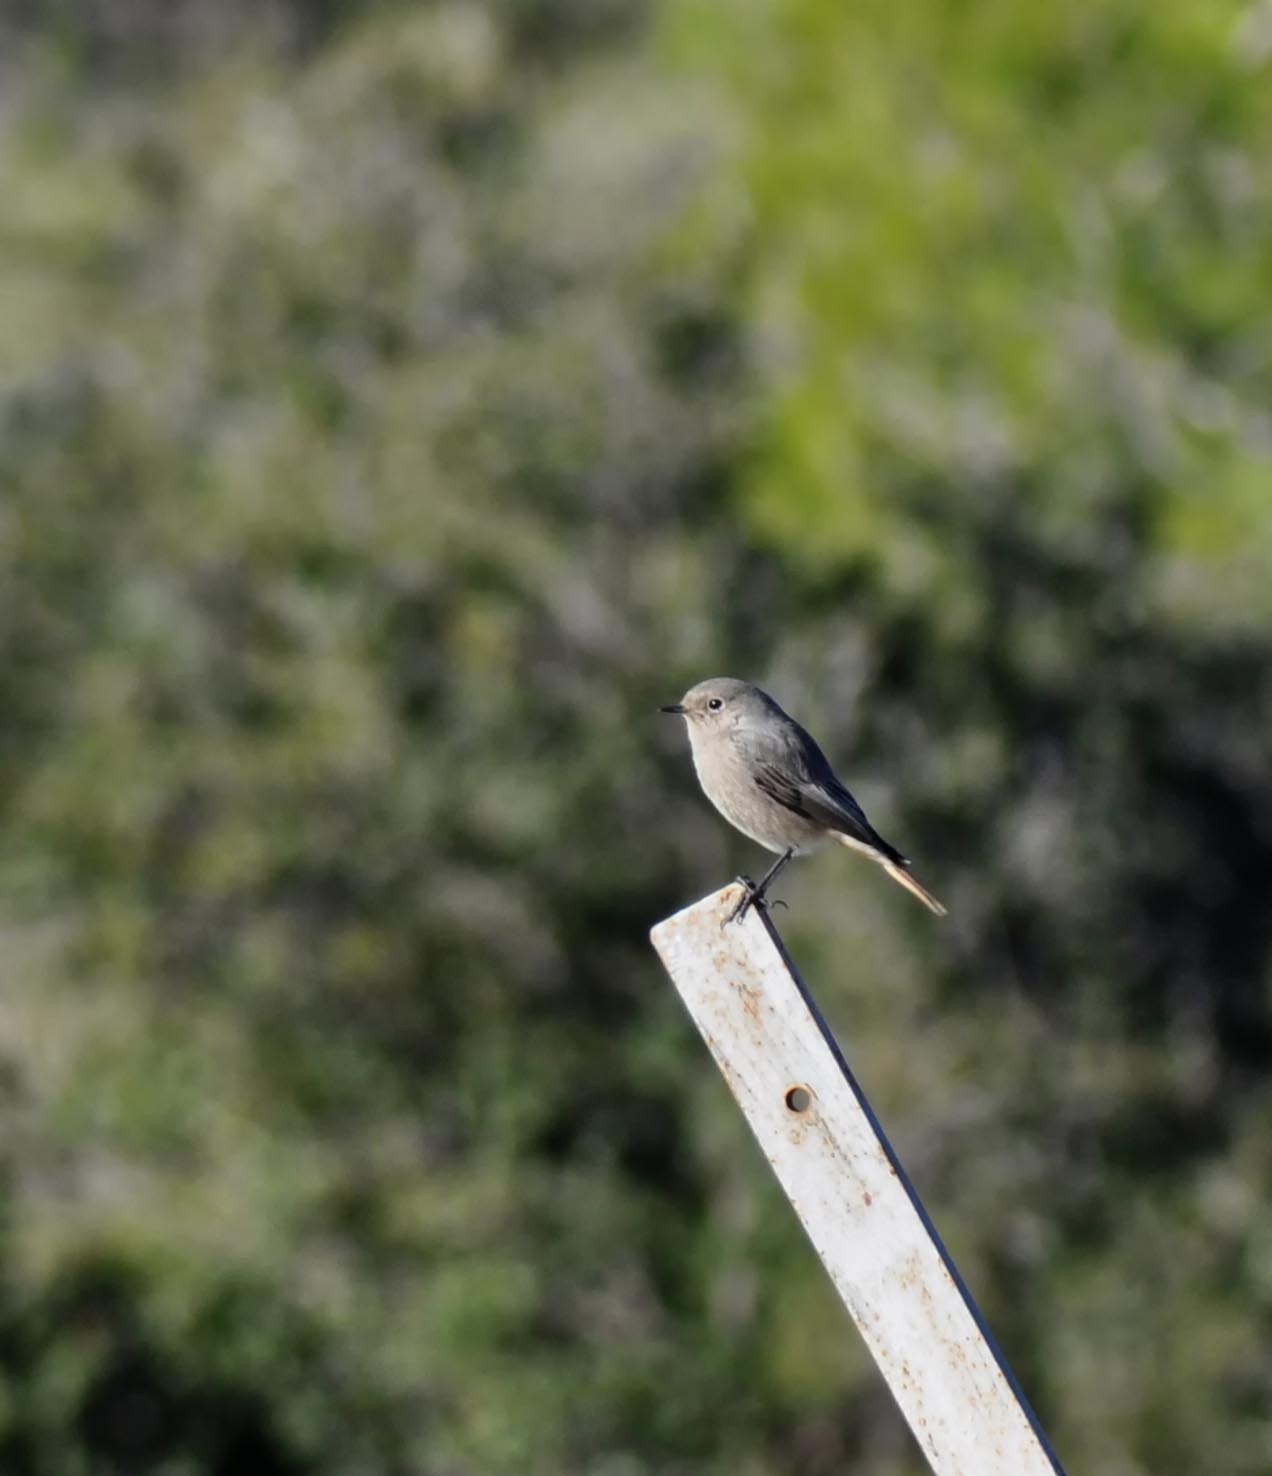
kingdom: Animalia
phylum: Chordata
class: Aves
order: Passeriformes
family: Muscicapidae
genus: Phoenicurus
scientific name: Phoenicurus ochruros
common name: Black redstart
